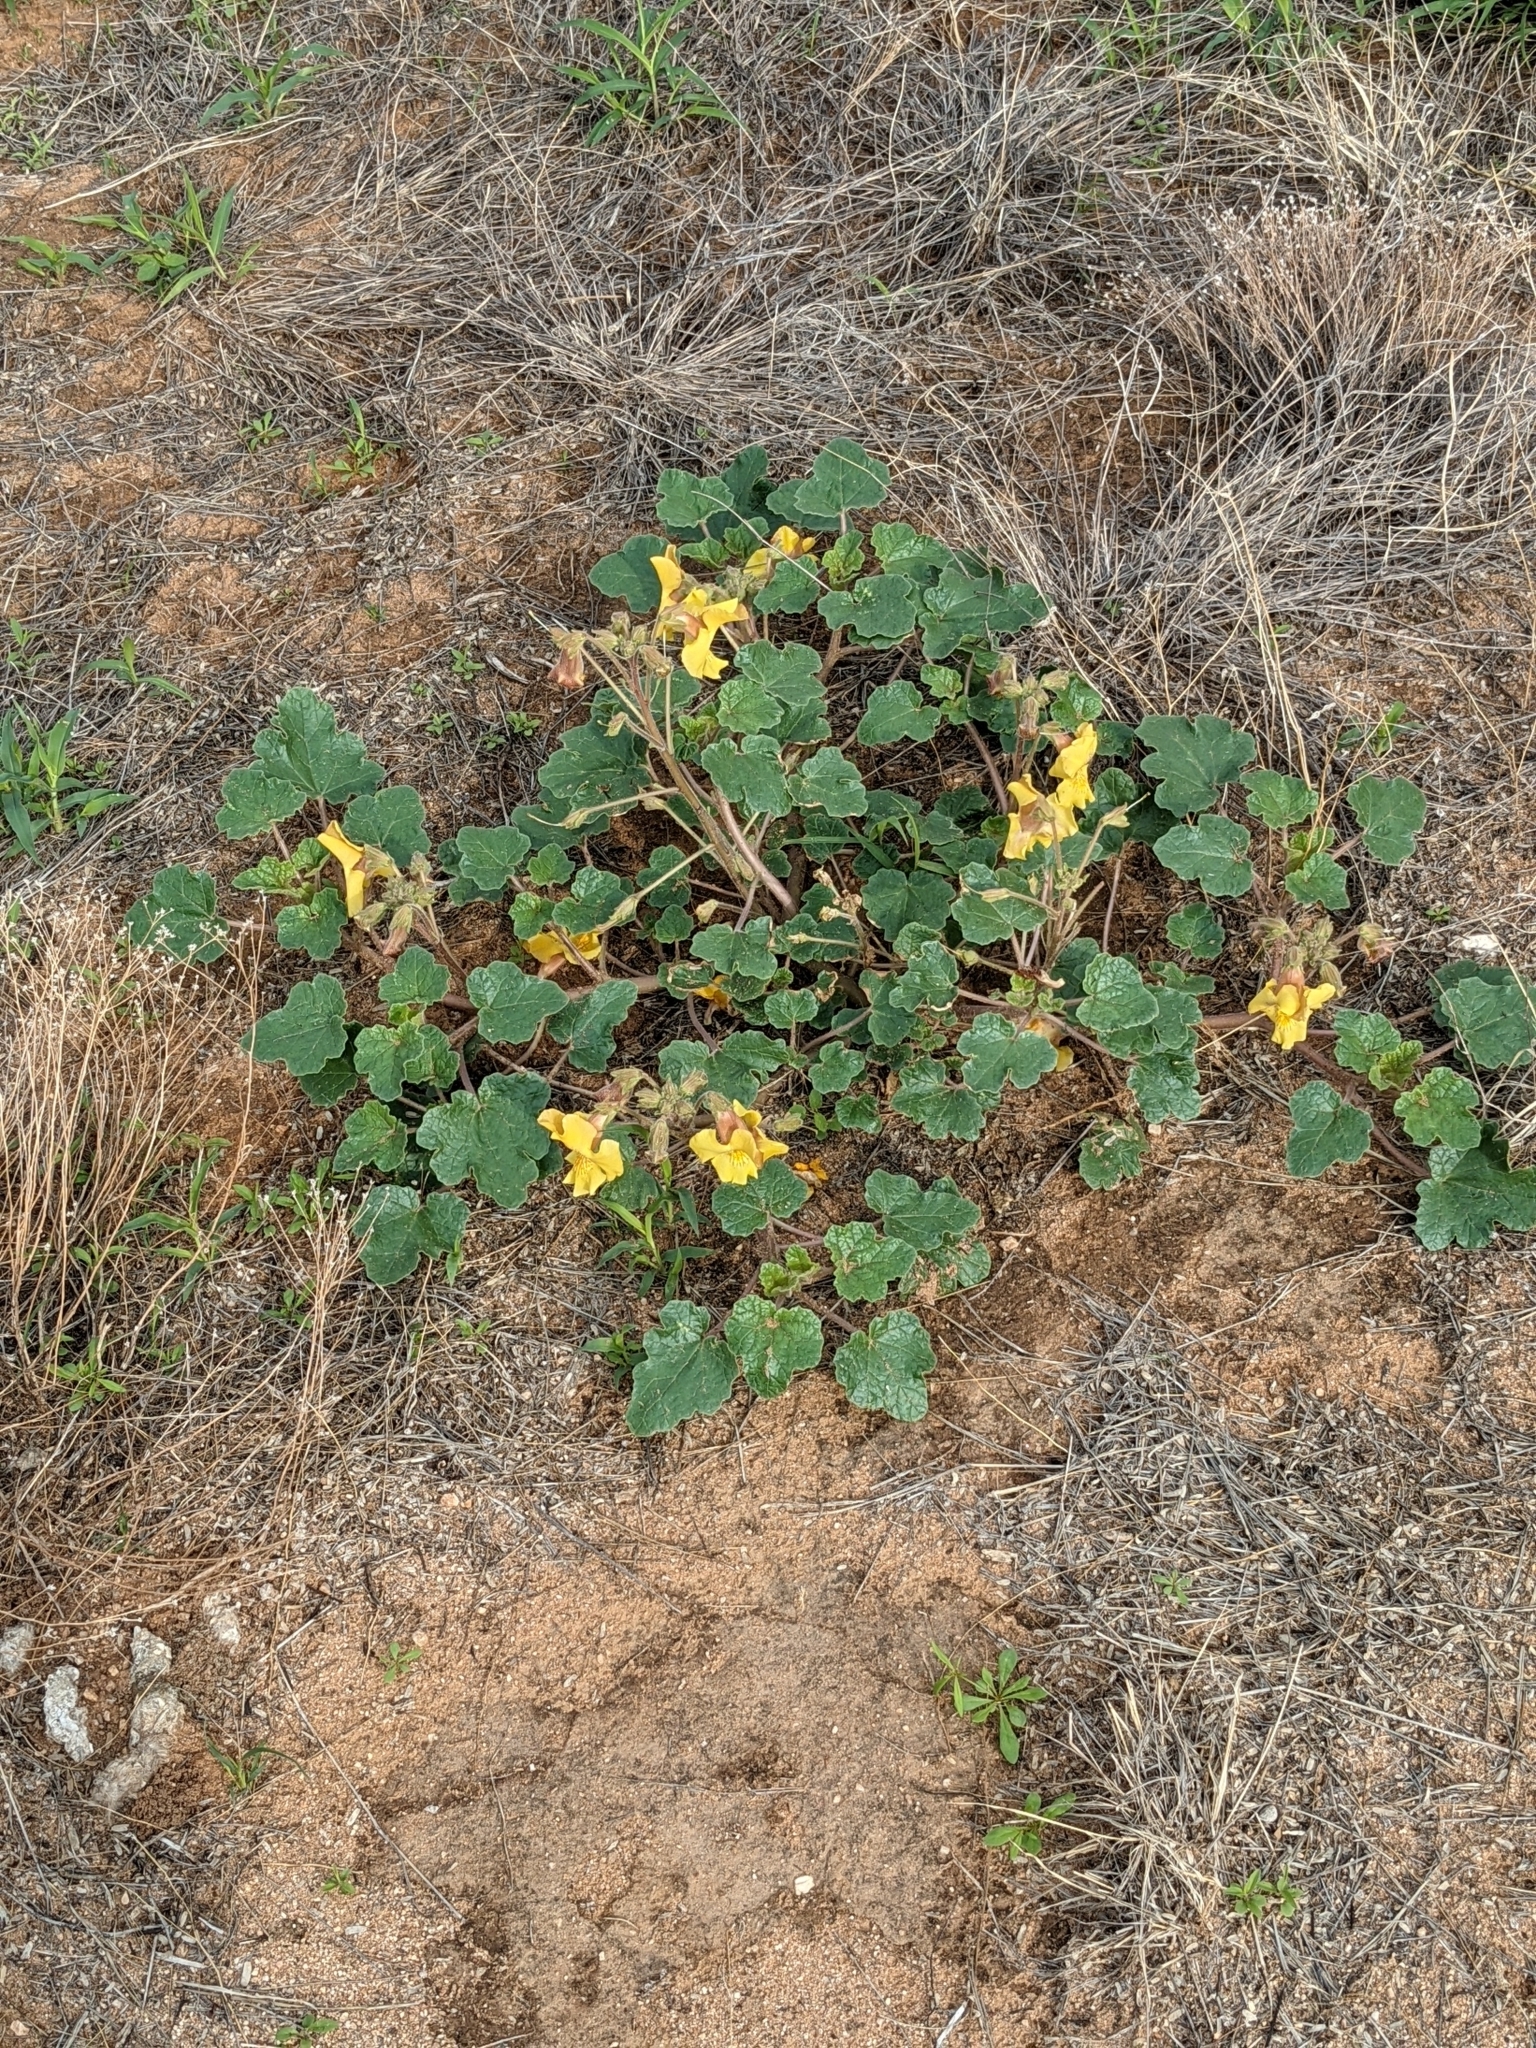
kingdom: Plantae
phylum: Tracheophyta
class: Magnoliopsida
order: Lamiales
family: Martyniaceae
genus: Proboscidea
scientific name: Proboscidea althaeifolia
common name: Desert unicorn-plant
